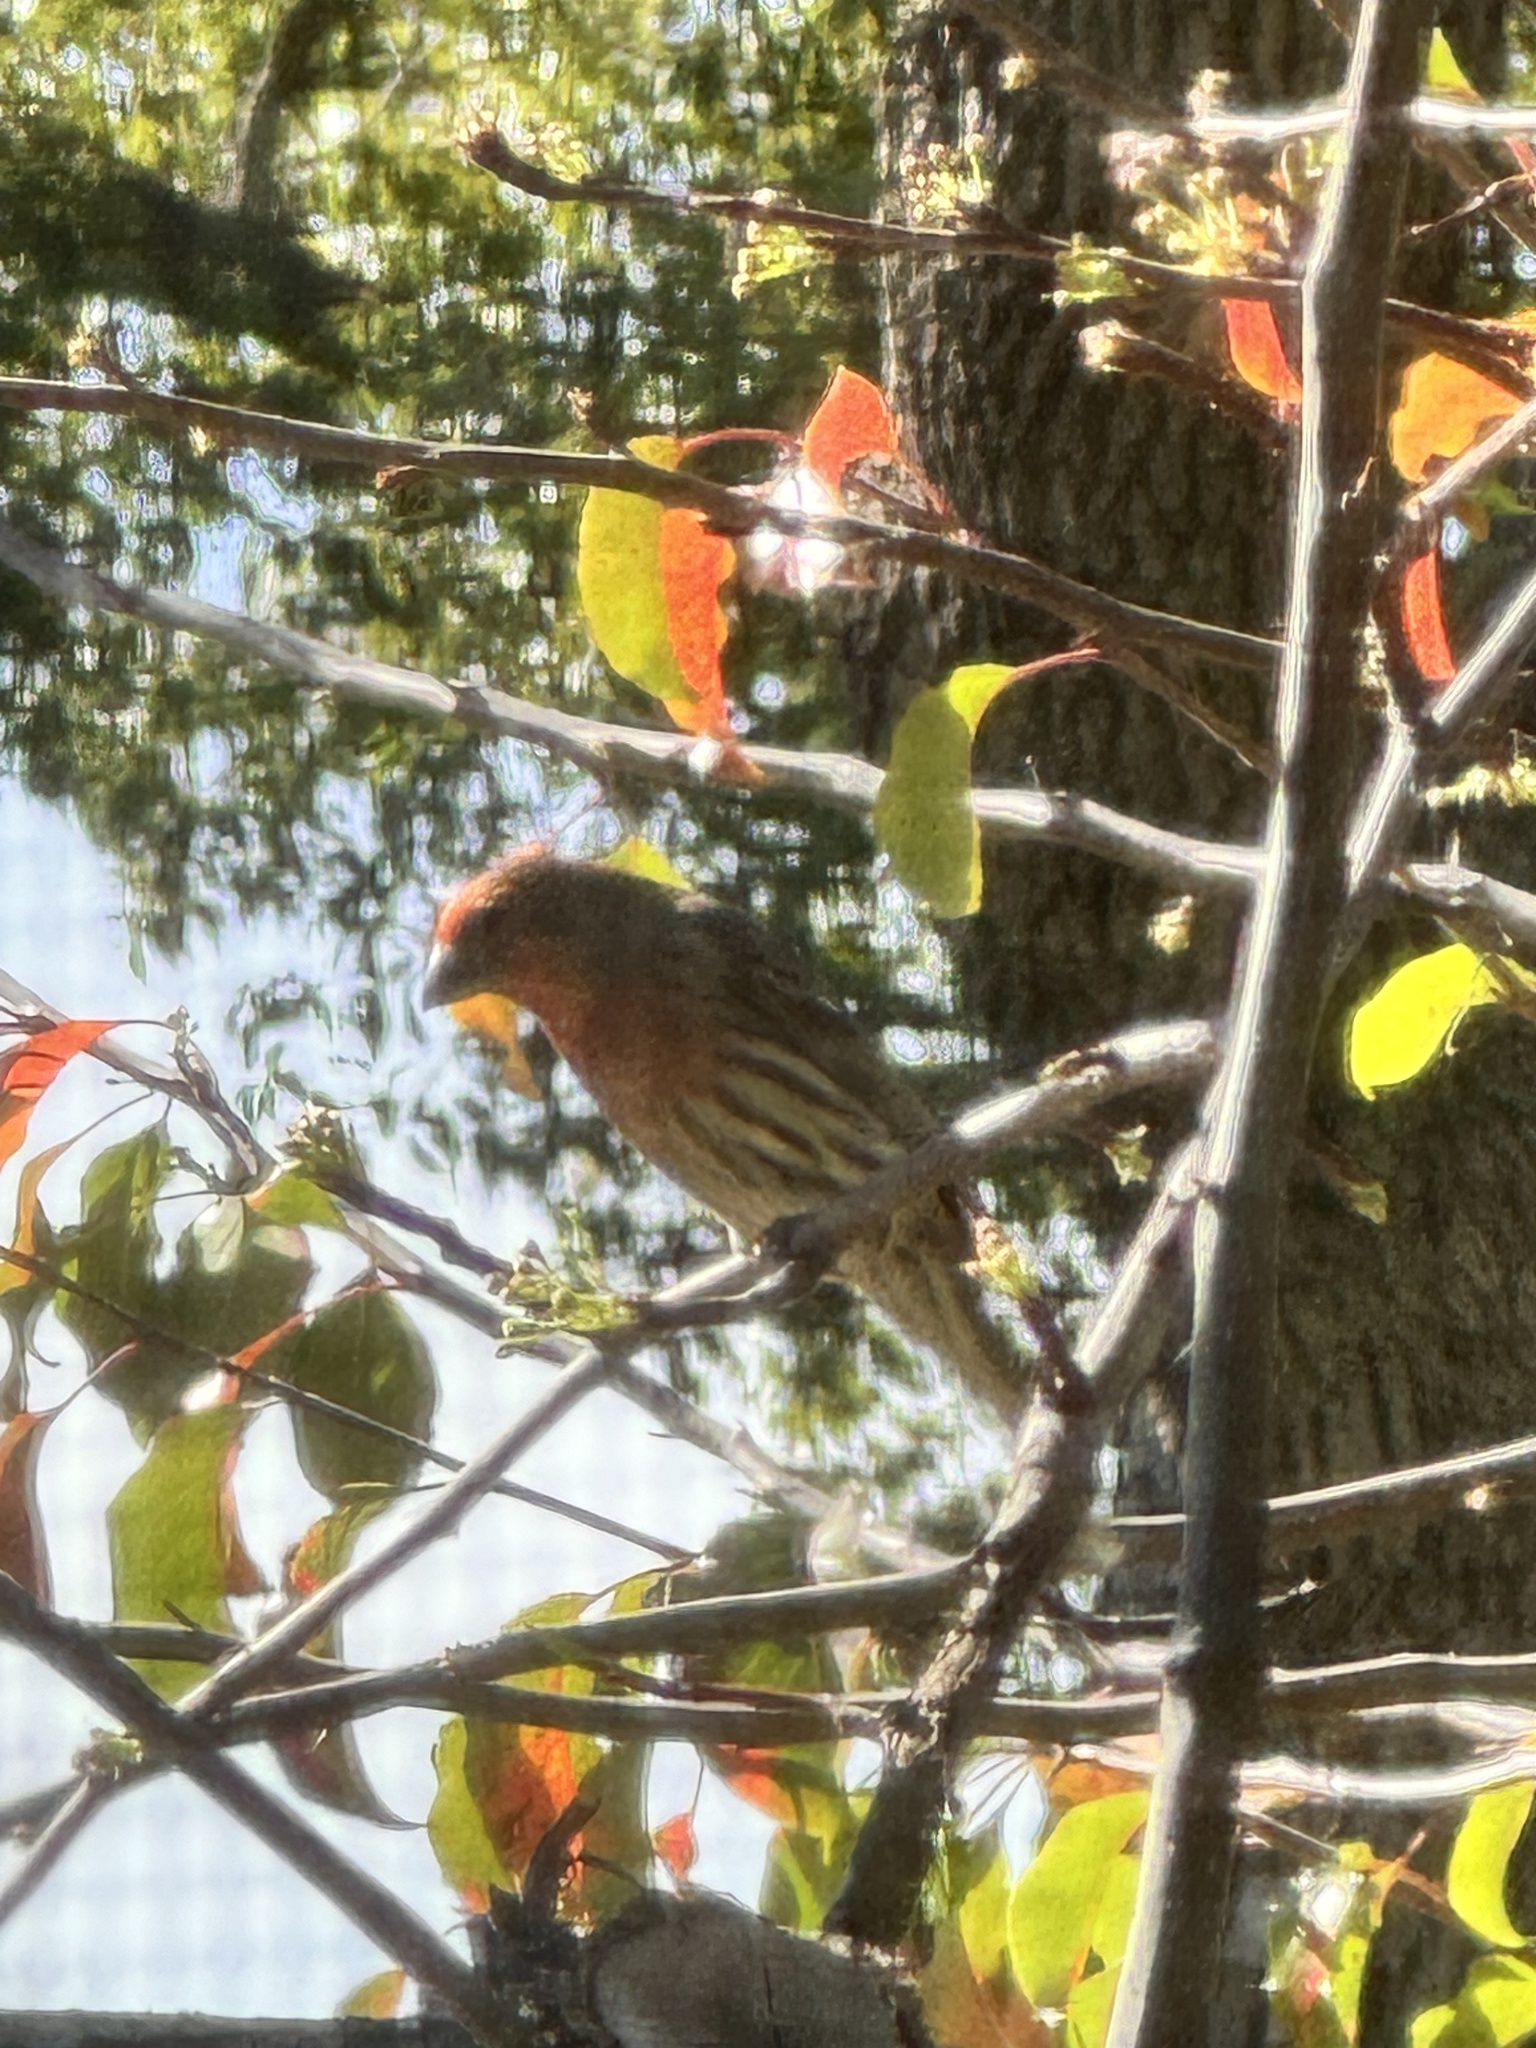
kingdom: Animalia
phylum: Chordata
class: Aves
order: Passeriformes
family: Fringillidae
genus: Haemorhous
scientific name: Haemorhous mexicanus
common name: House finch
